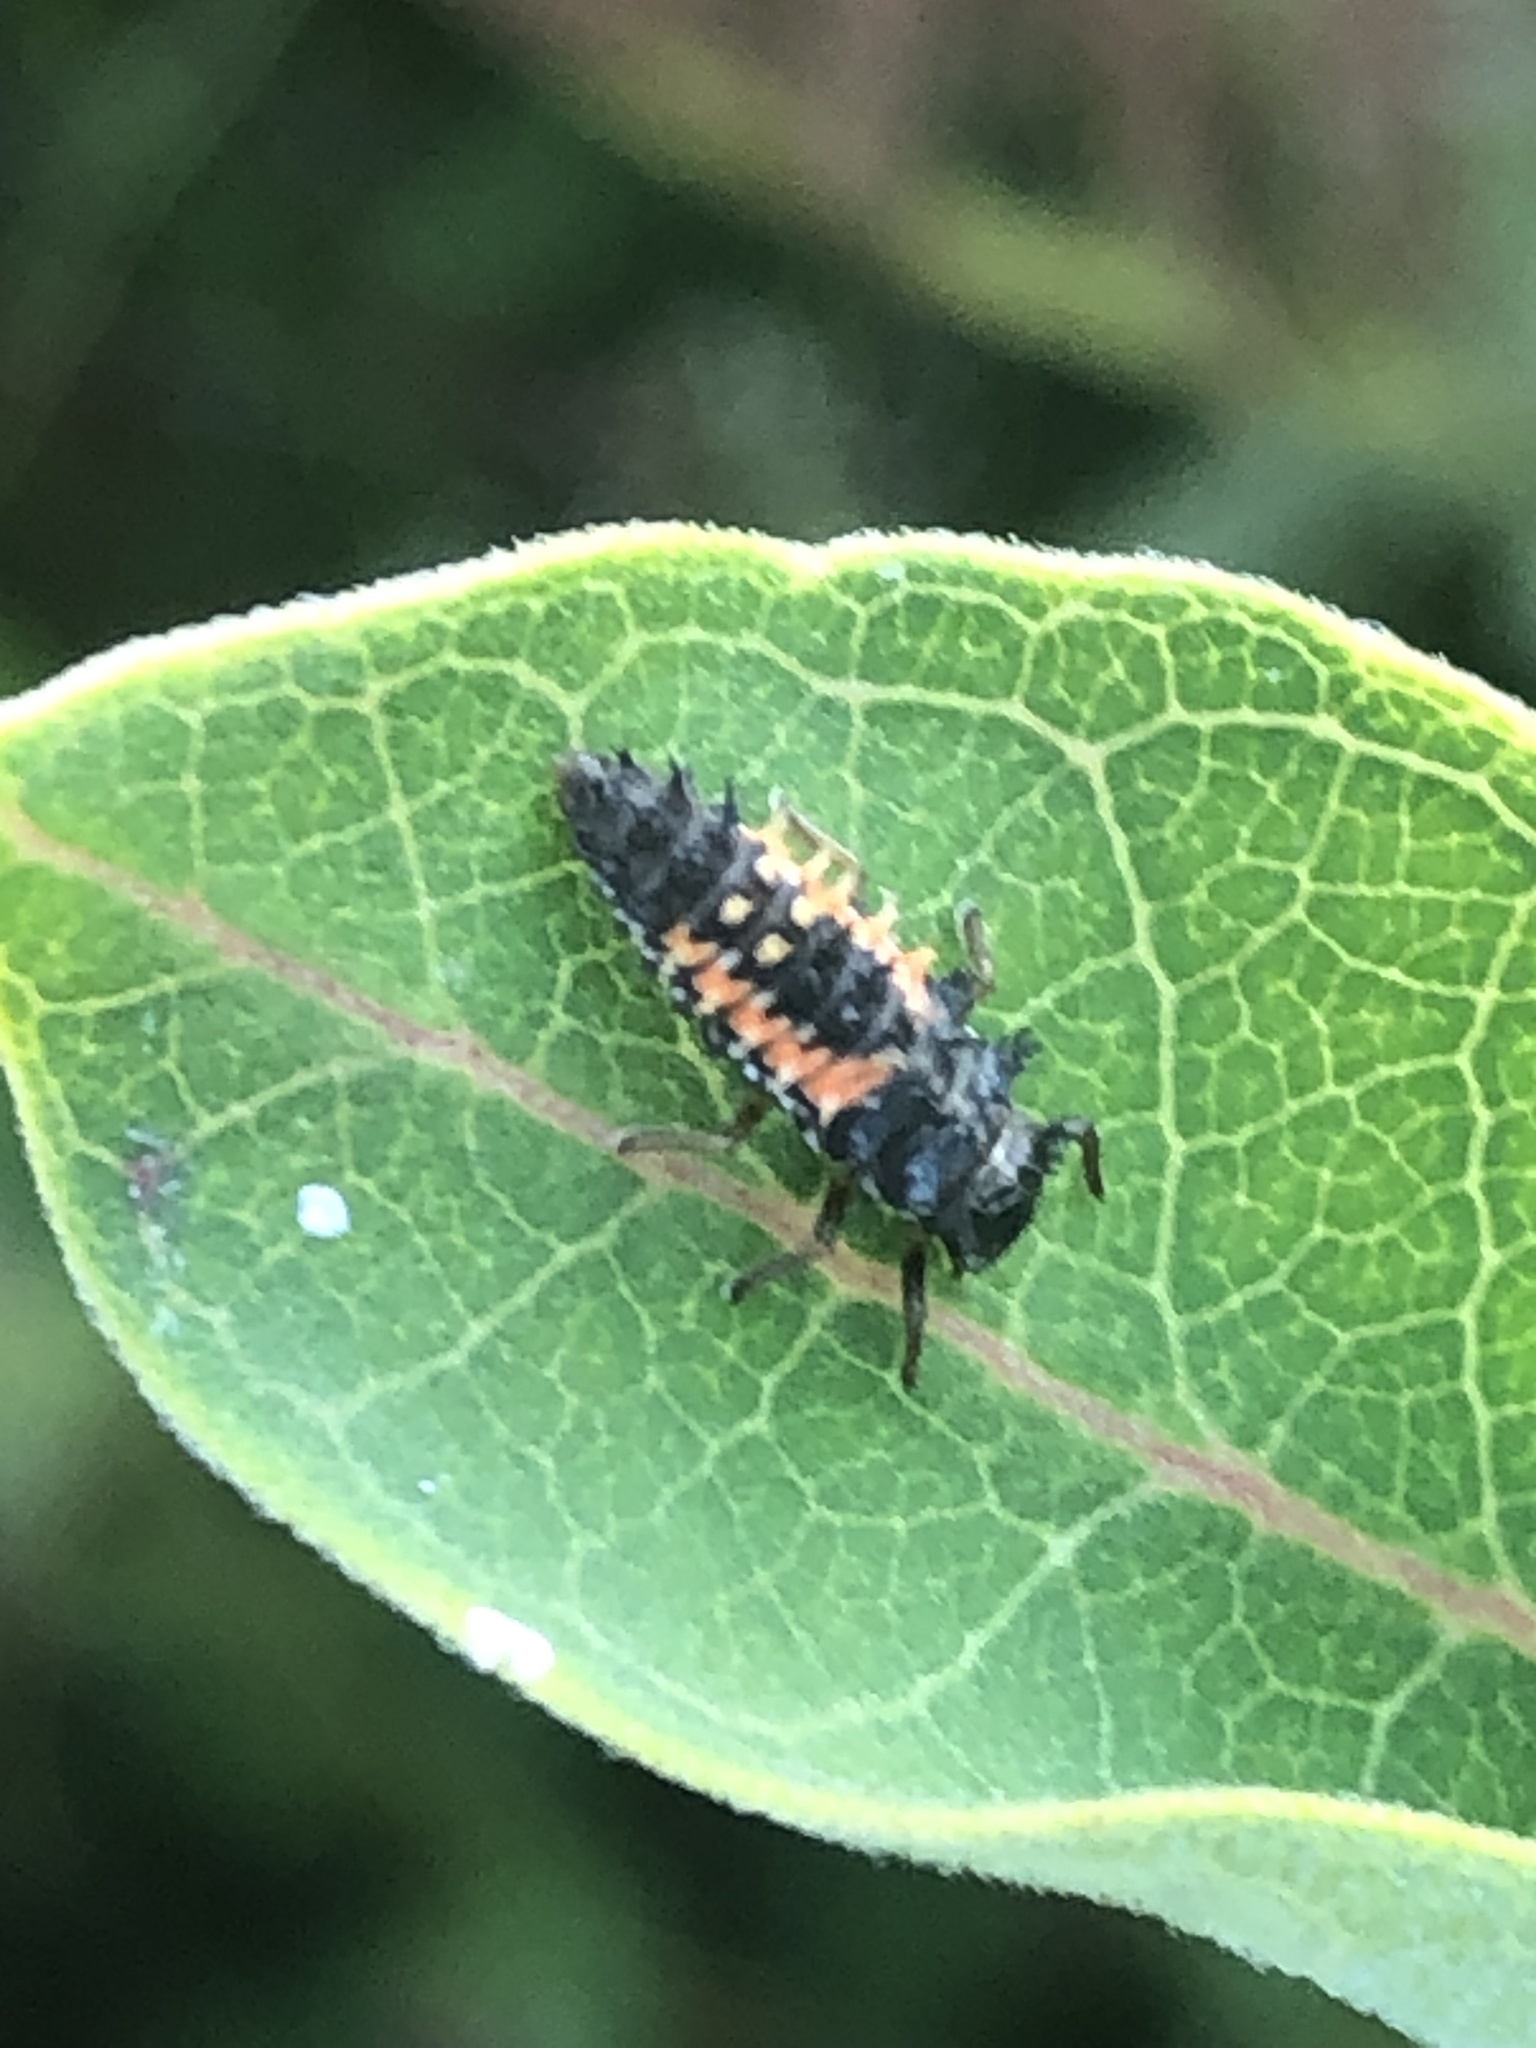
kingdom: Animalia
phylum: Arthropoda
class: Insecta
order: Coleoptera
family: Coccinellidae
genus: Harmonia
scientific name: Harmonia axyridis
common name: Harlequin ladybird
